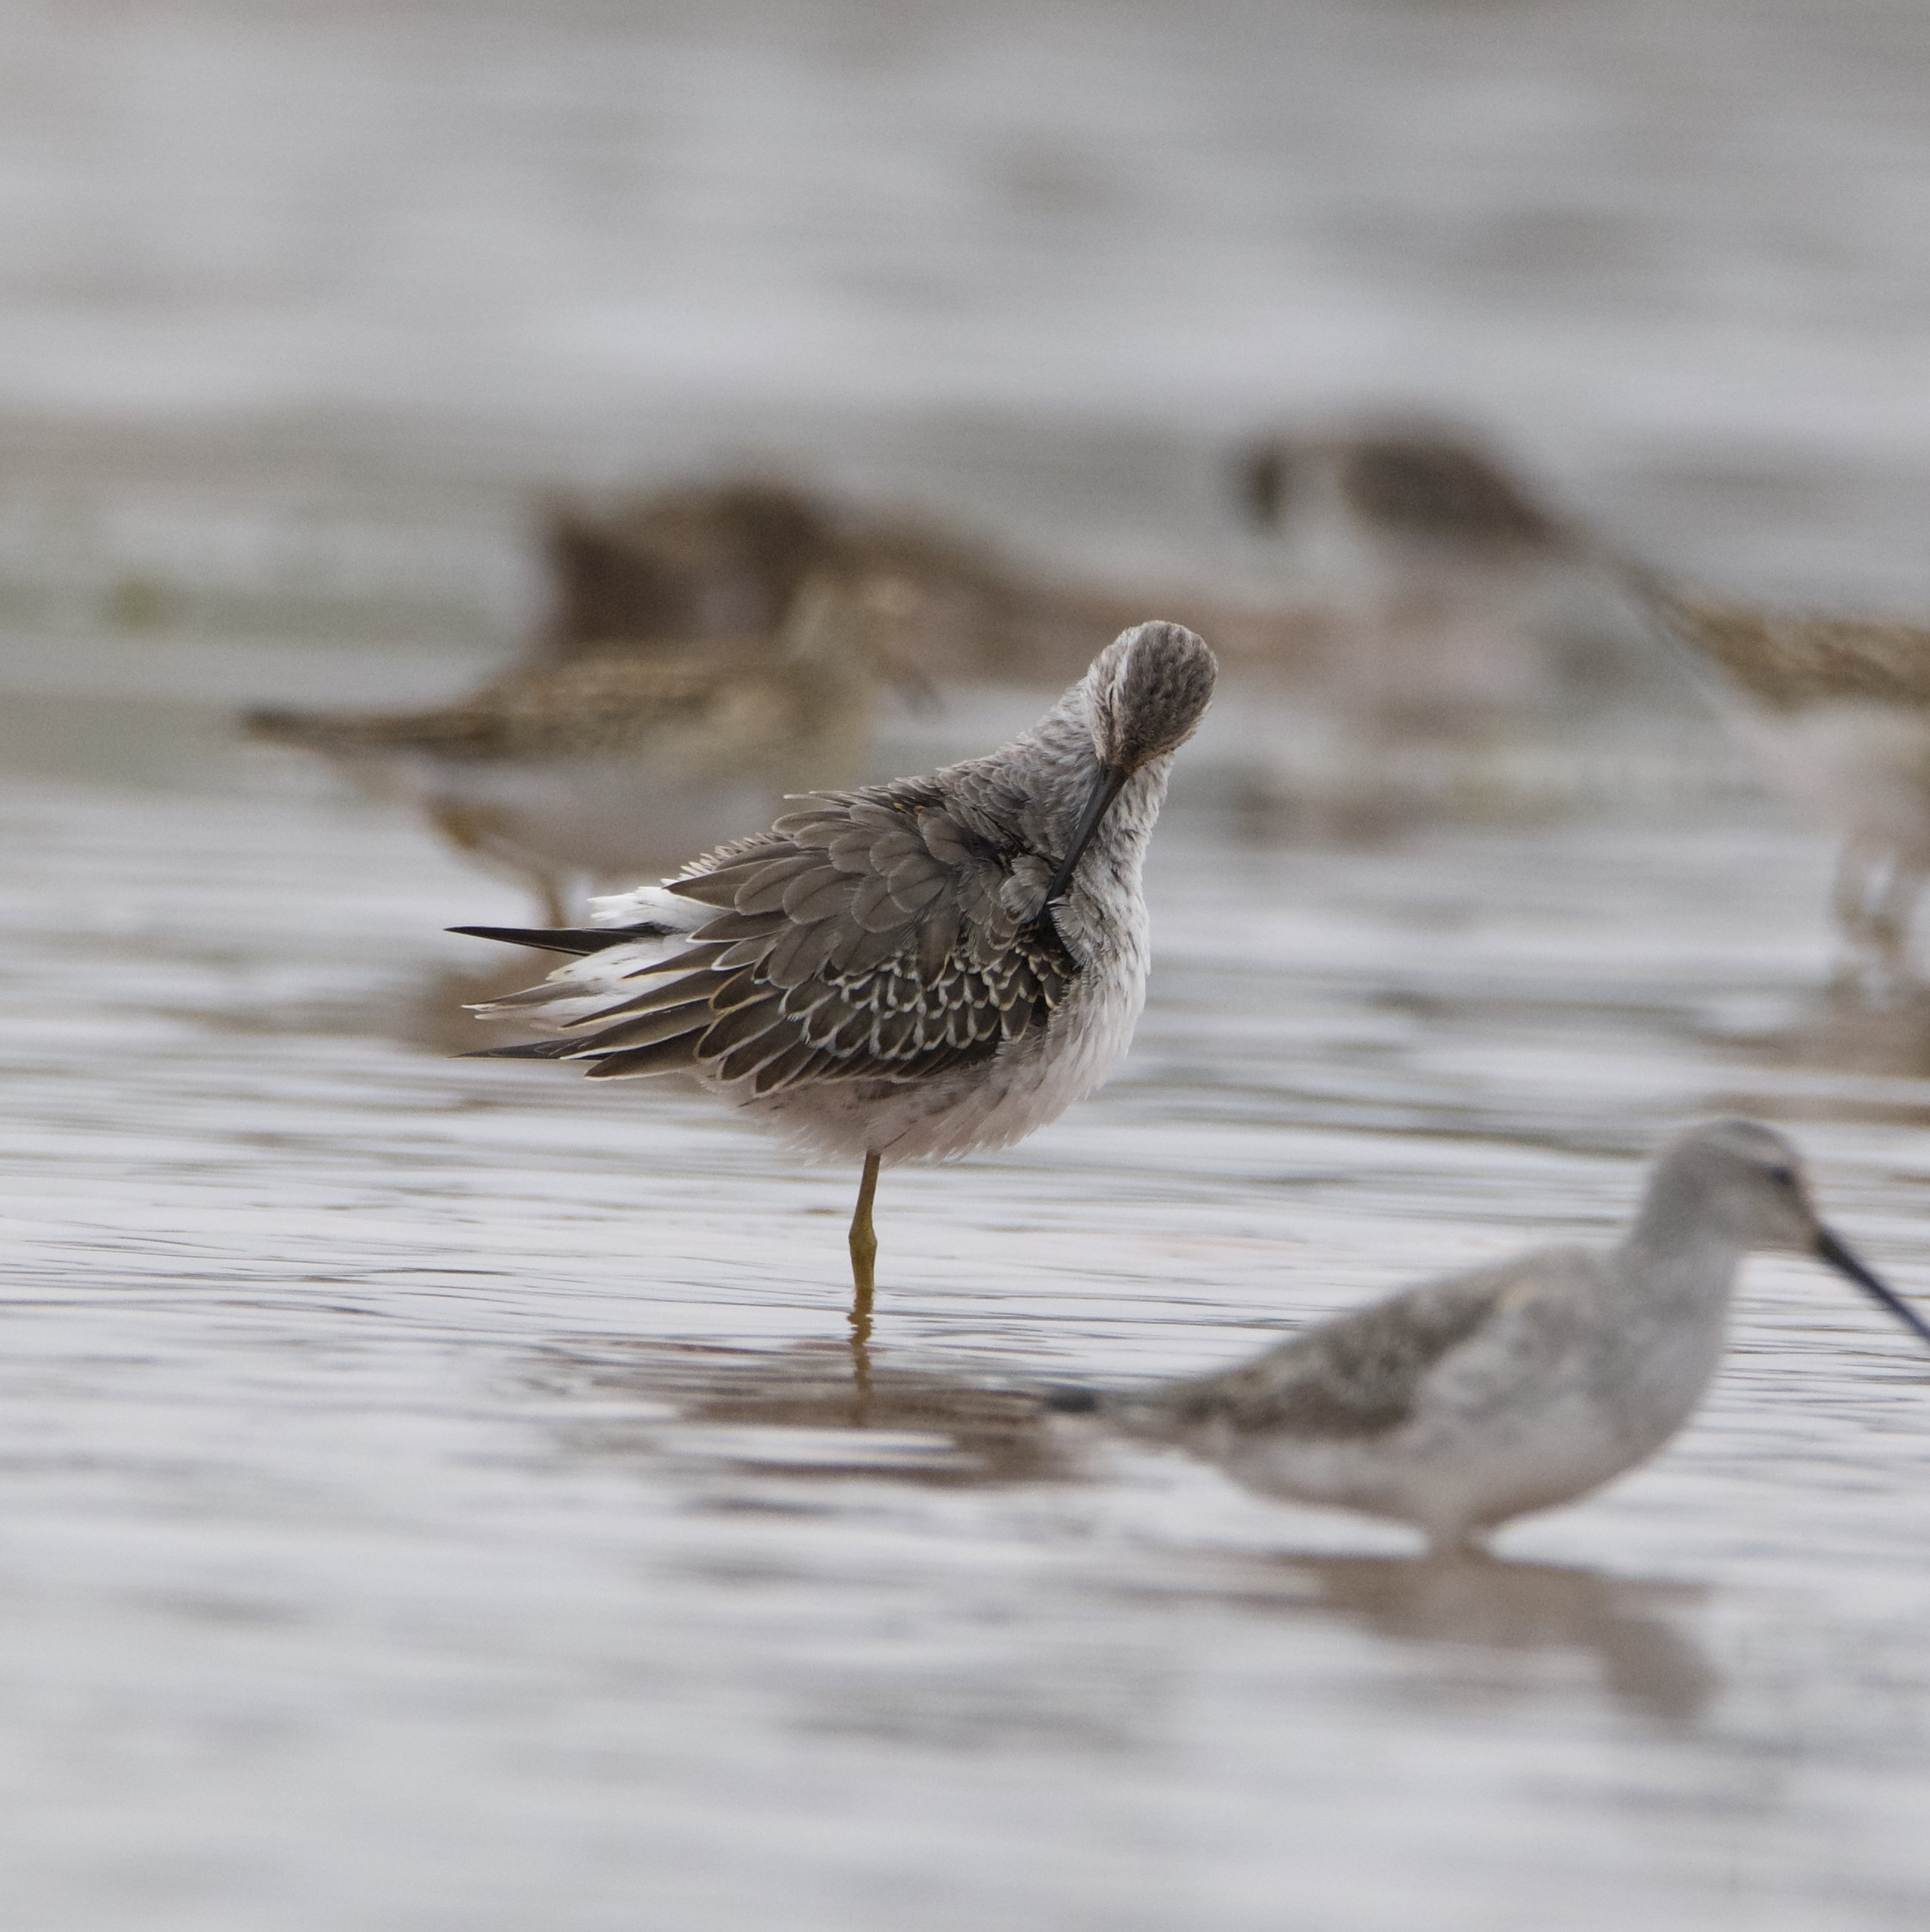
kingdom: Animalia
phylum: Chordata
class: Aves
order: Charadriiformes
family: Scolopacidae
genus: Calidris
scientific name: Calidris himantopus
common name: Stilt sandpiper
